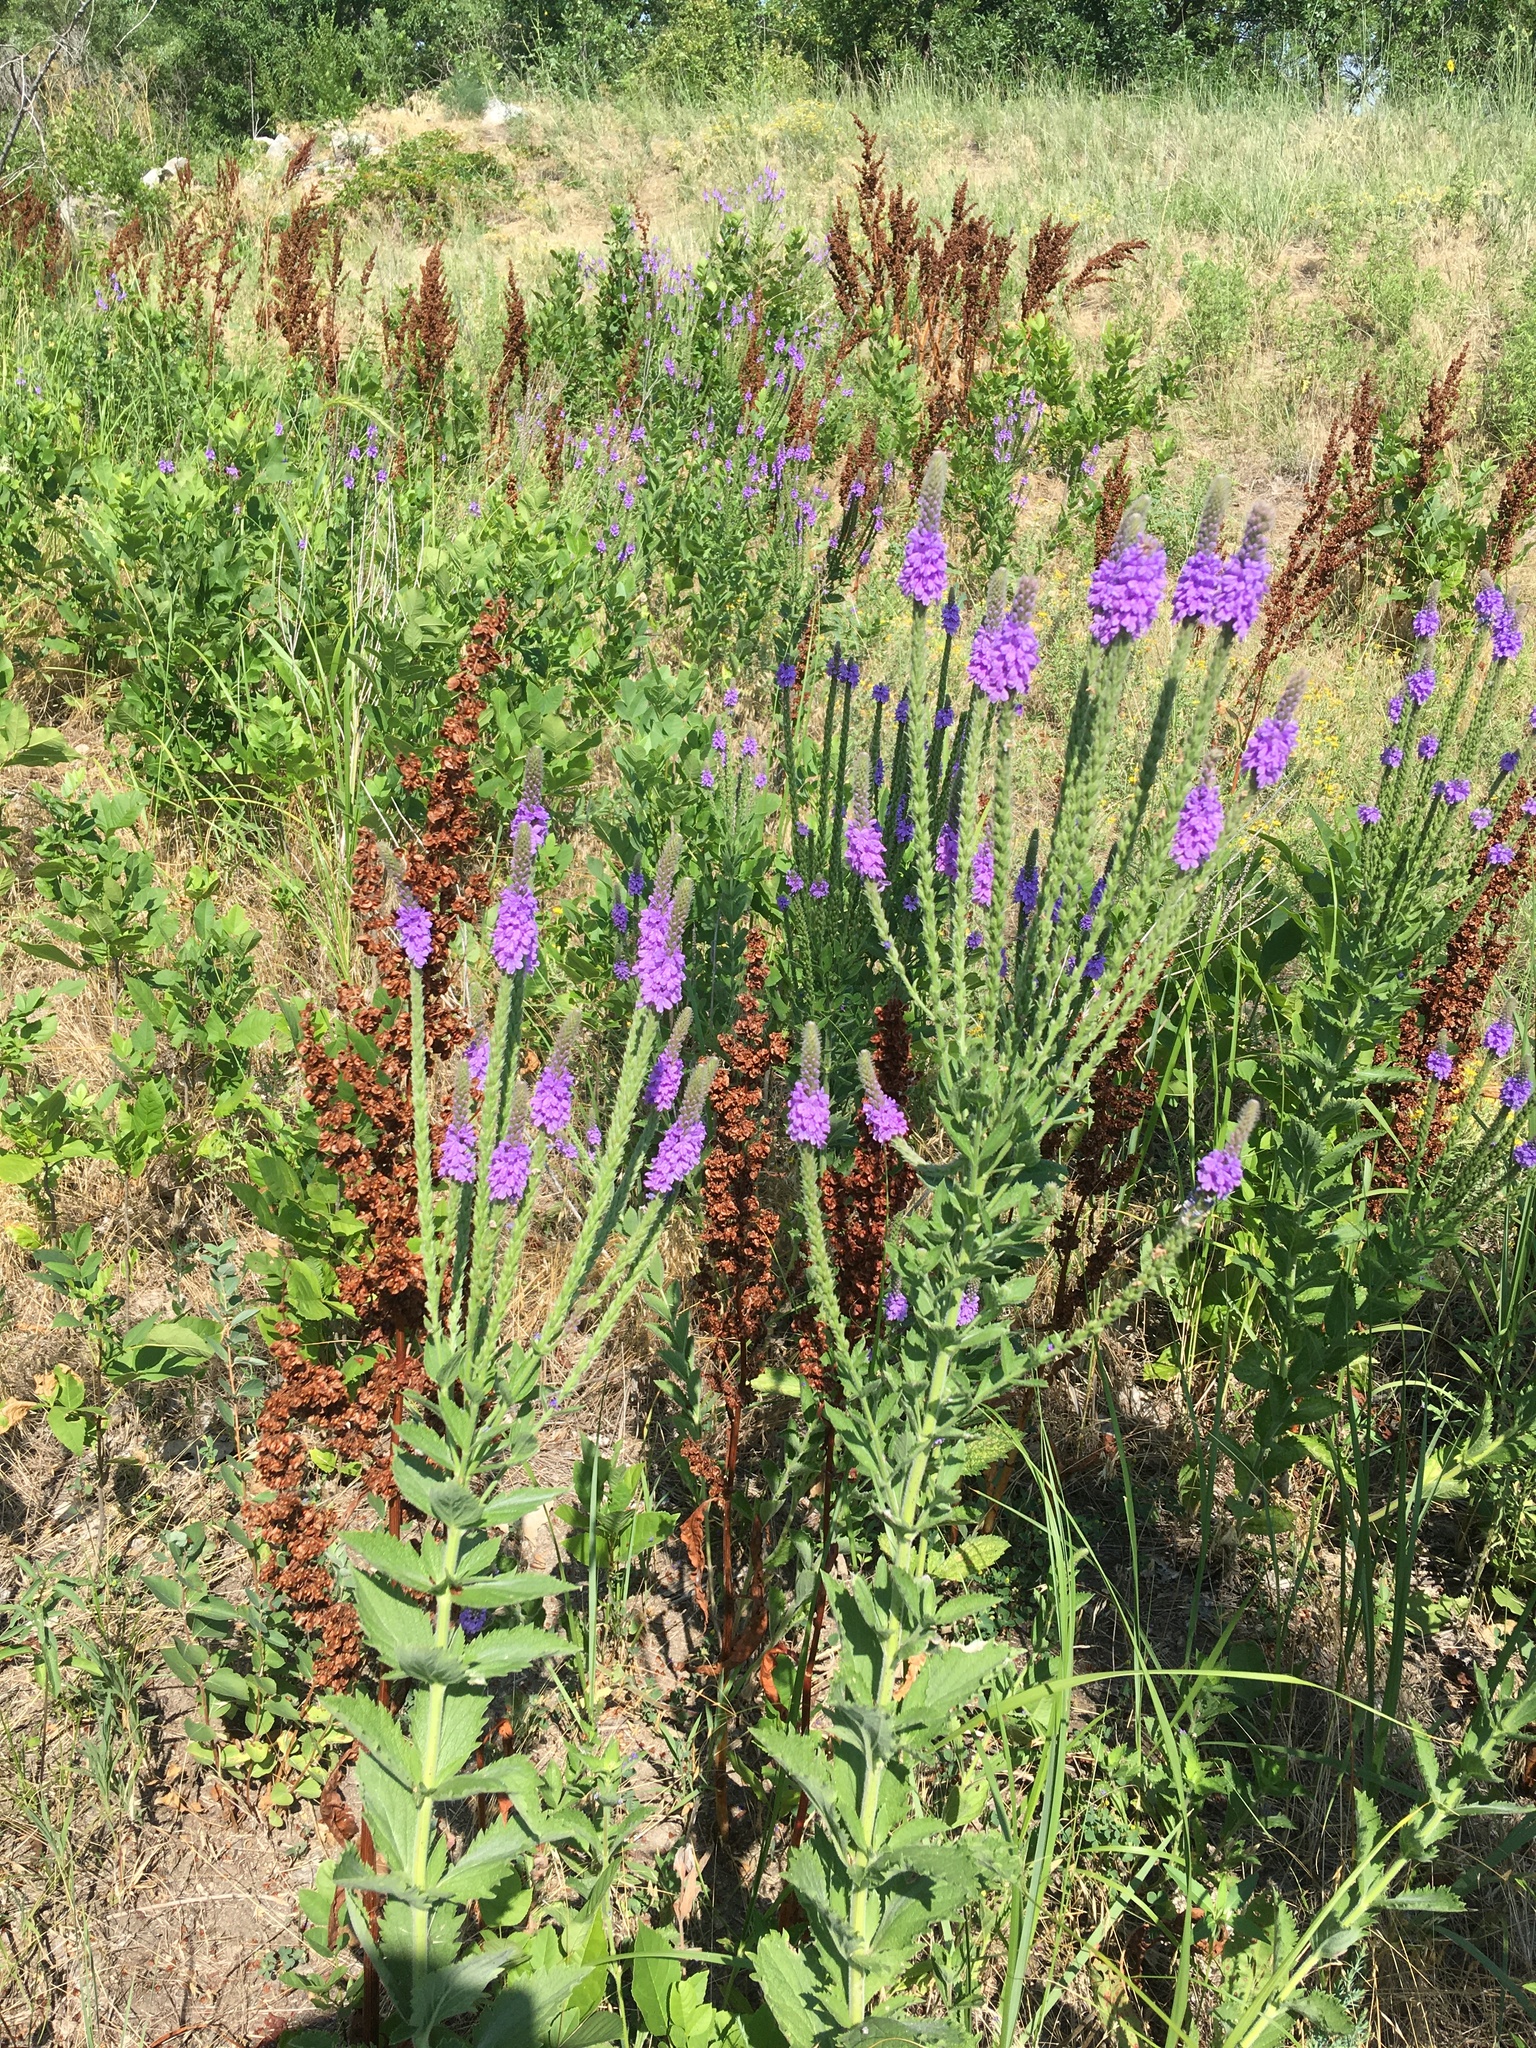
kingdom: Plantae
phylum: Tracheophyta
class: Magnoliopsida
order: Lamiales
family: Verbenaceae
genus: Verbena
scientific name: Verbena stricta
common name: Hoary vervain
